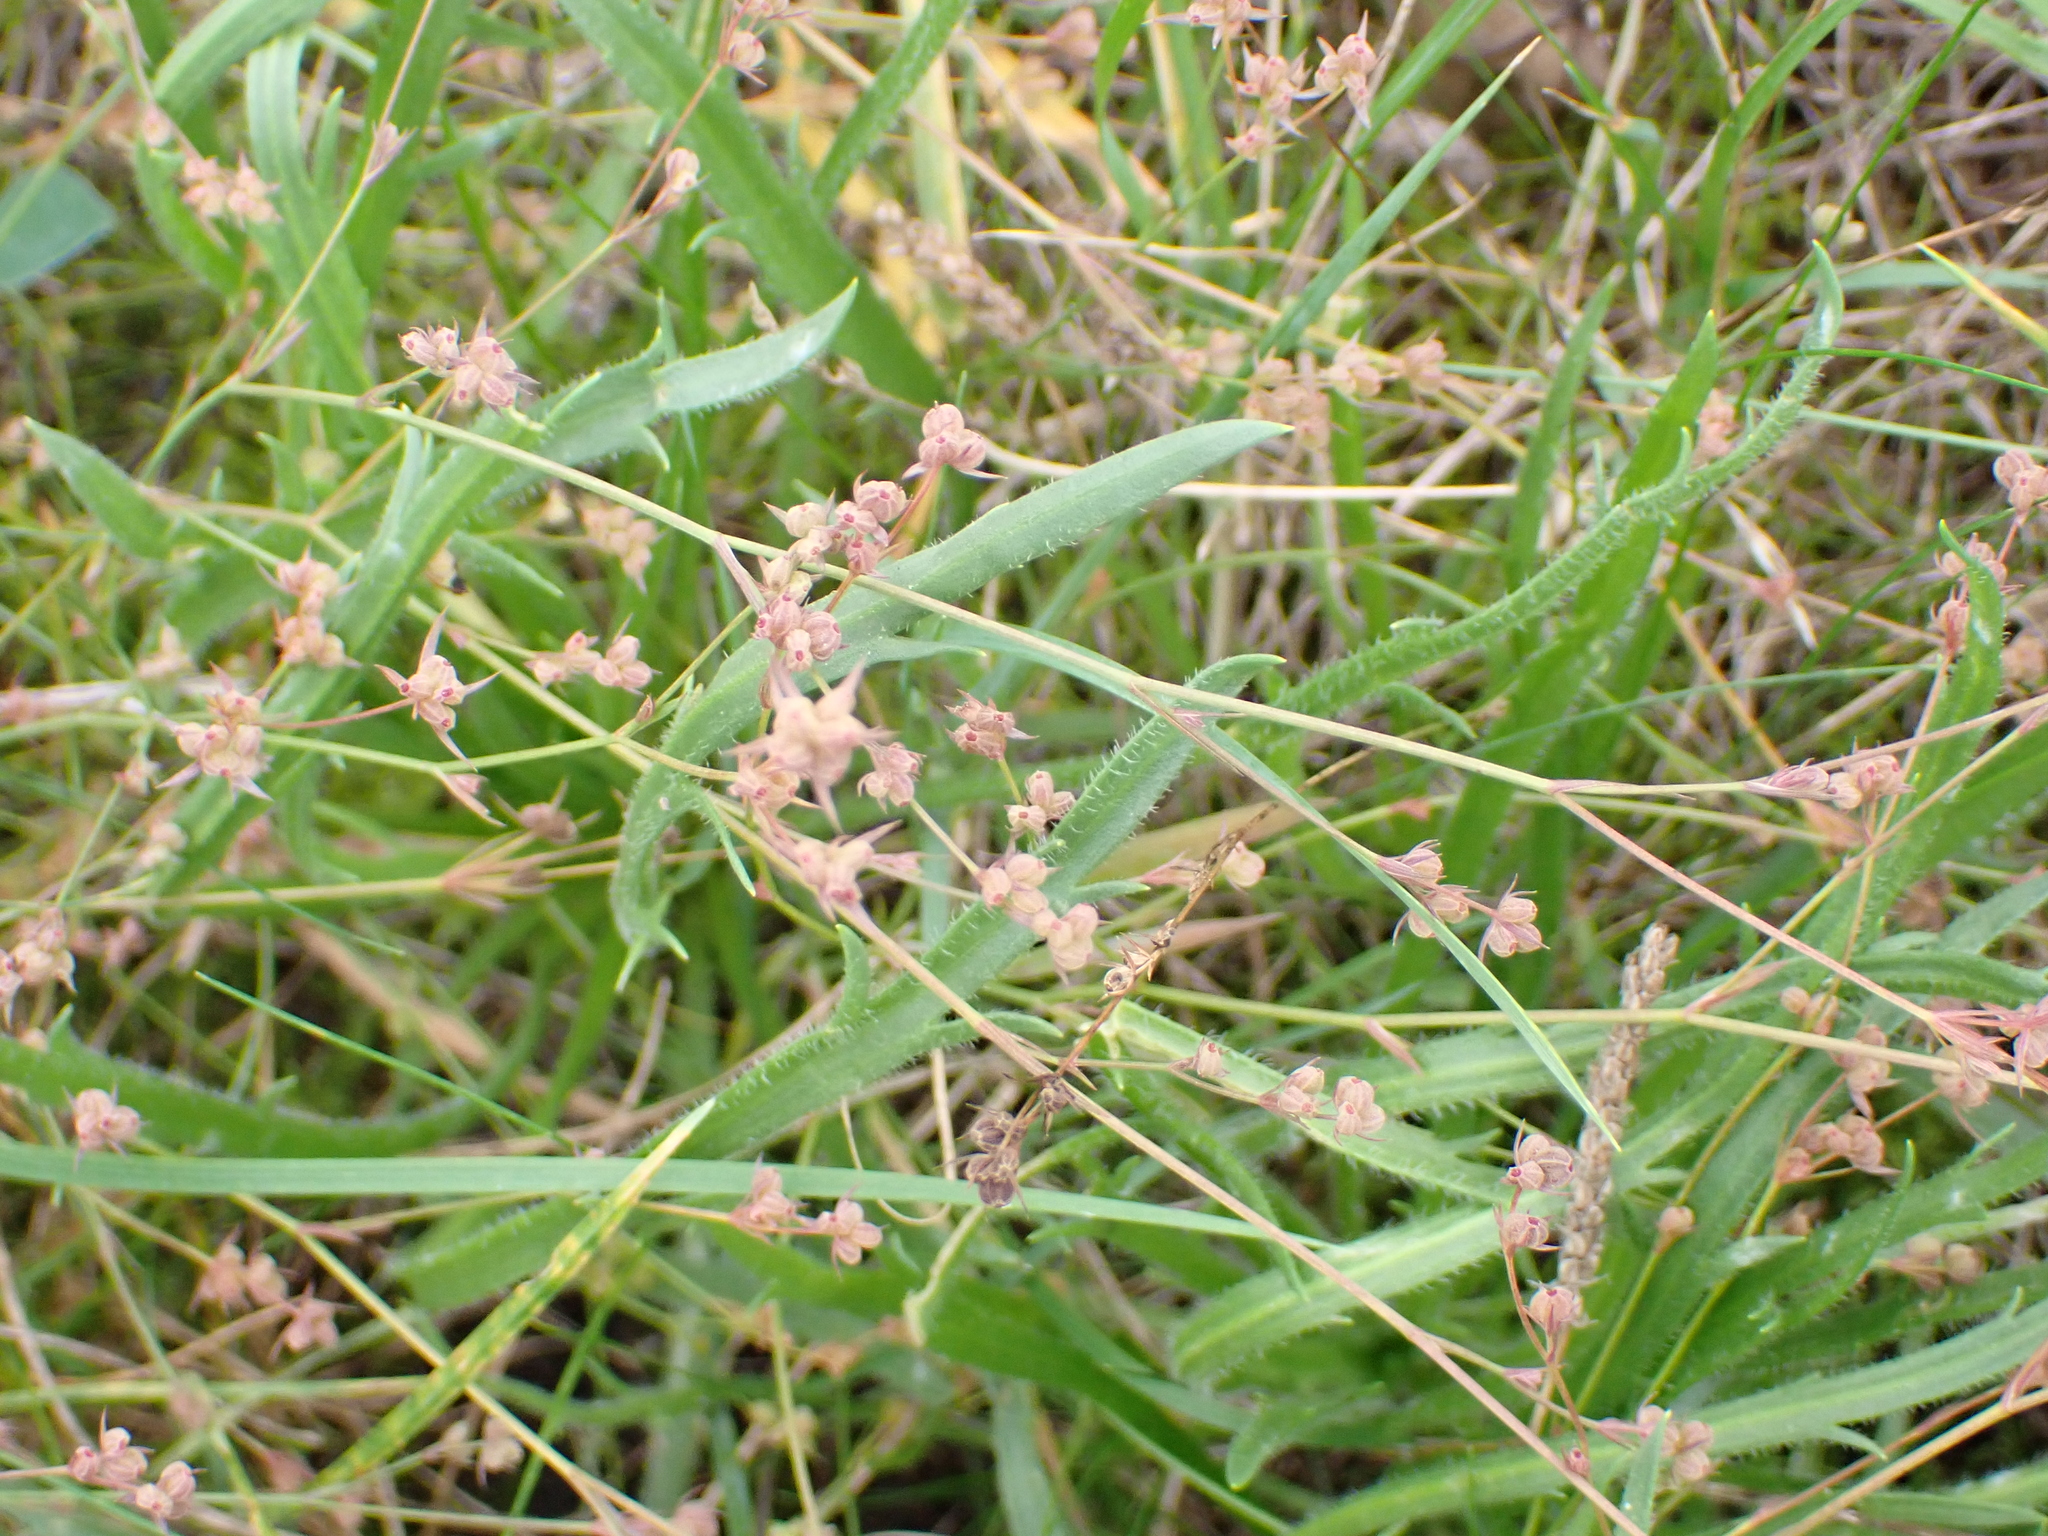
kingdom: Plantae
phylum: Tracheophyta
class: Magnoliopsida
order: Apiales
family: Apiaceae
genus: Bupleurum
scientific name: Bupleurum tenuissimum
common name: Slender hare's-ear
